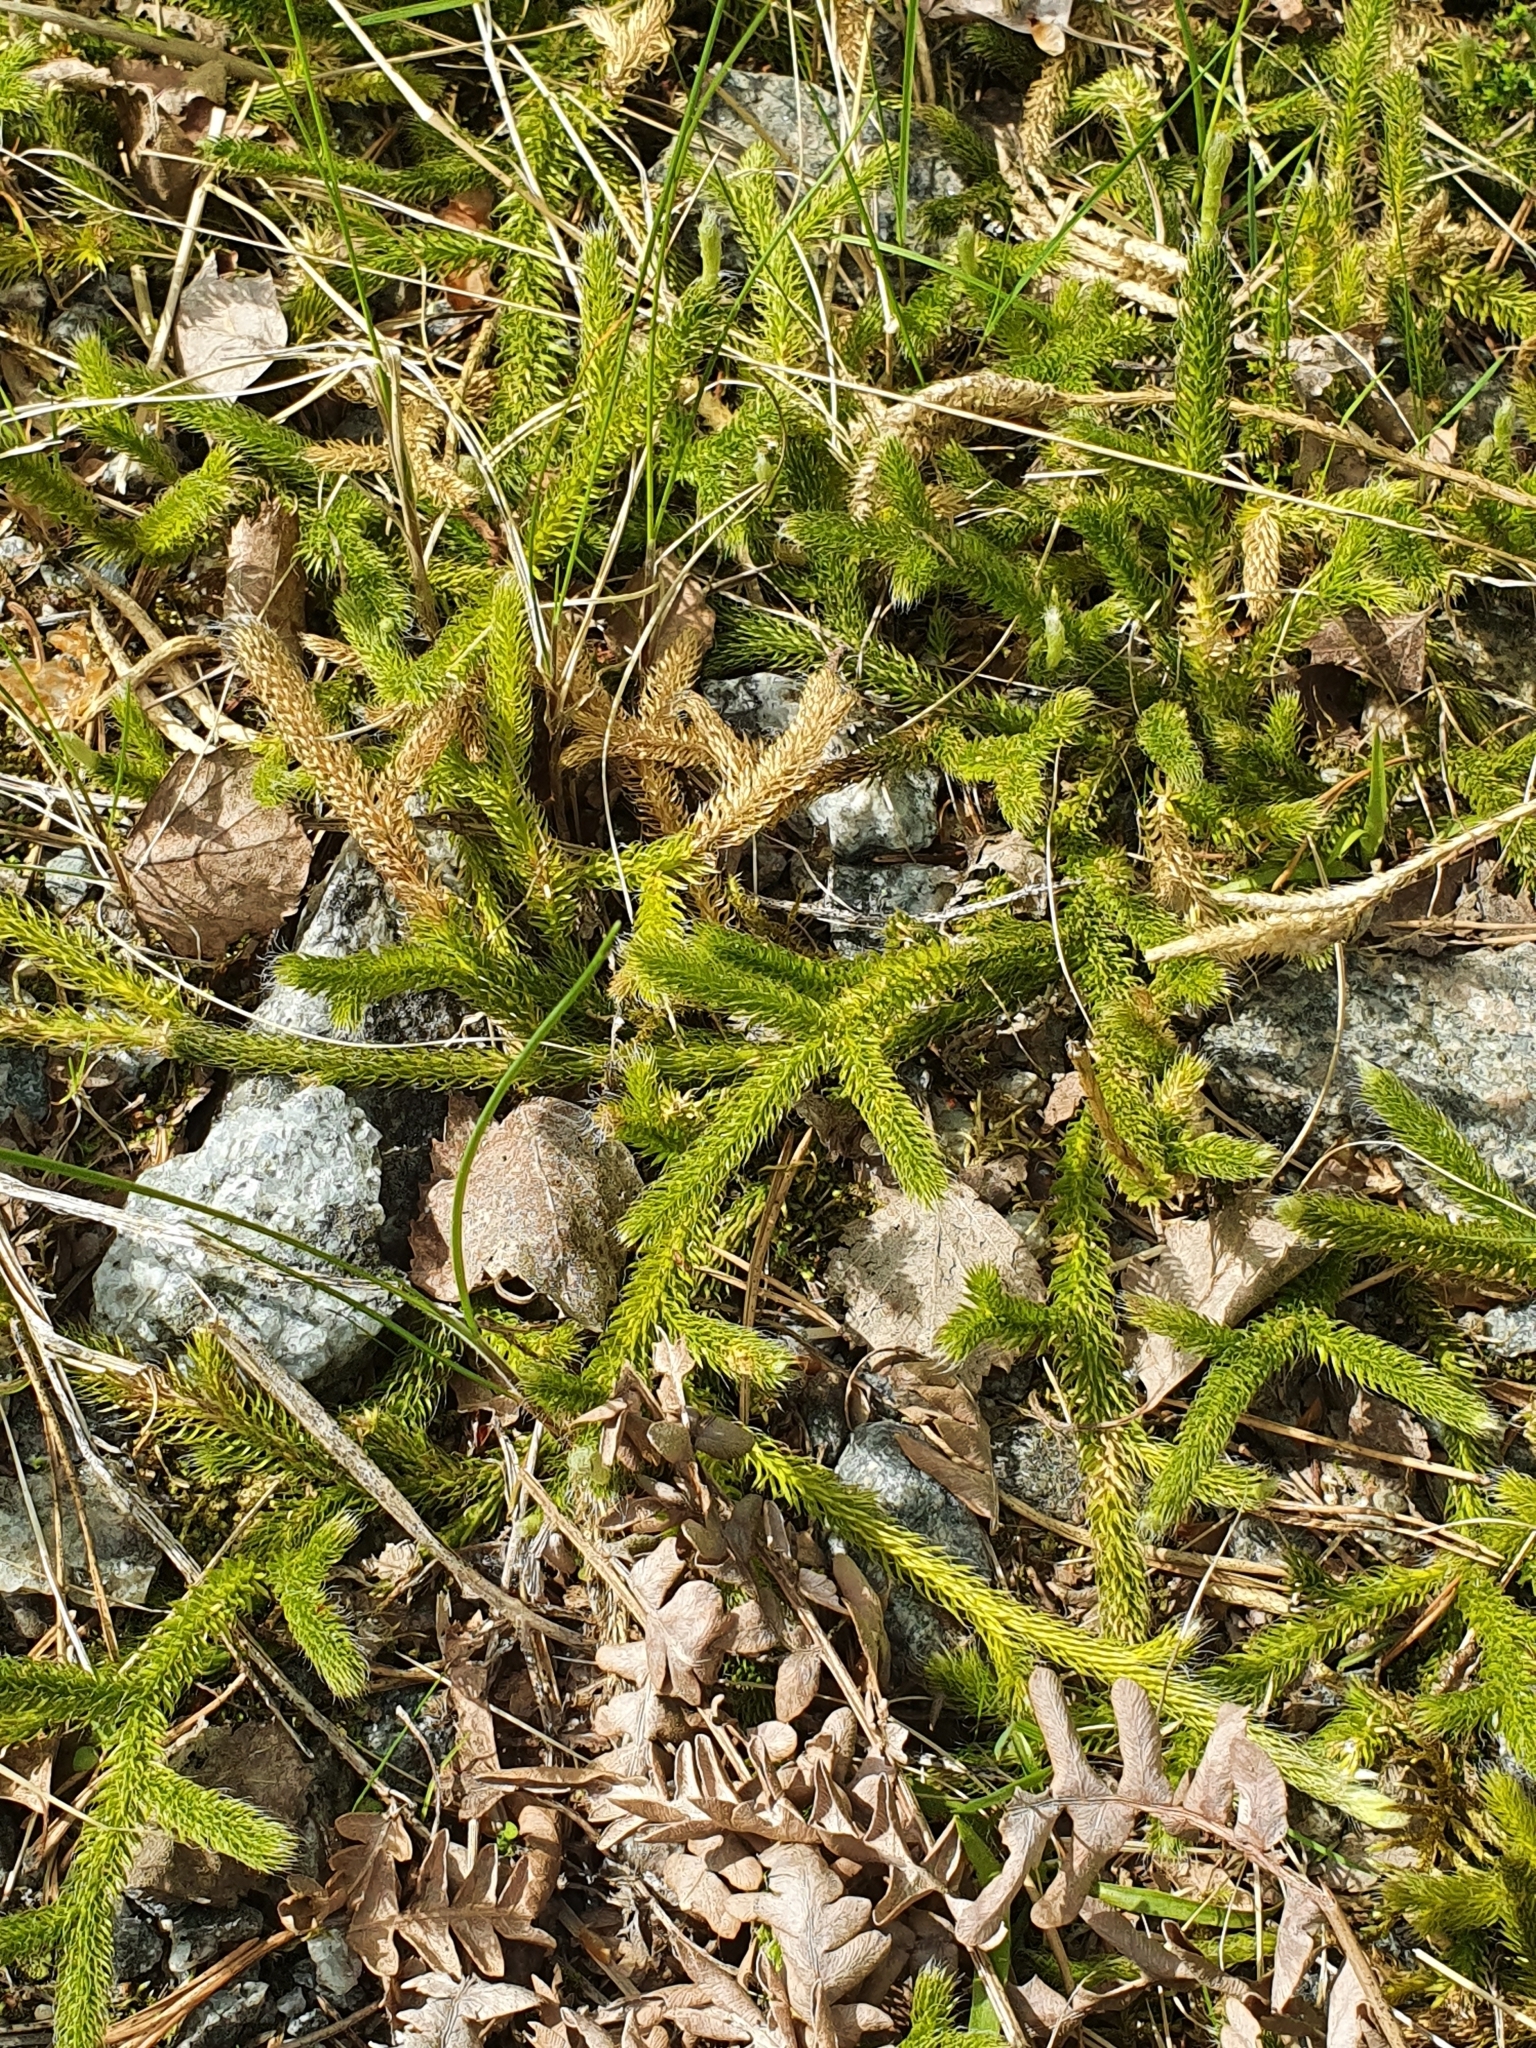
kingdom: Plantae
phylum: Tracheophyta
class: Lycopodiopsida
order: Lycopodiales
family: Lycopodiaceae
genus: Lycopodium
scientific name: Lycopodium clavatum
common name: Stag's-horn clubmoss
